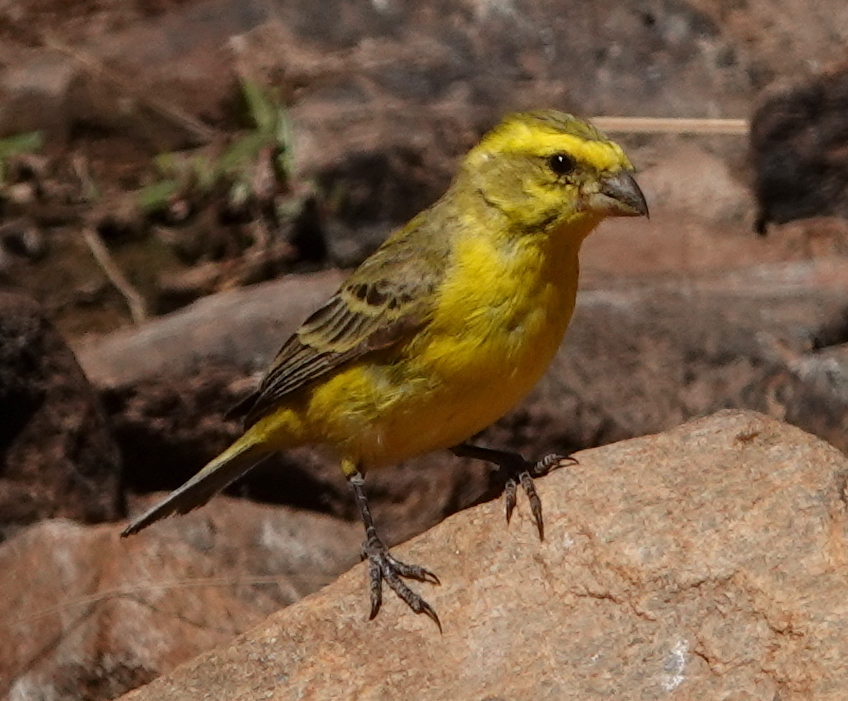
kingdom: Animalia
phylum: Chordata
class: Aves
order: Passeriformes
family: Fringillidae
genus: Crithagra
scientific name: Crithagra flaviventris
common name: Yellow canary
